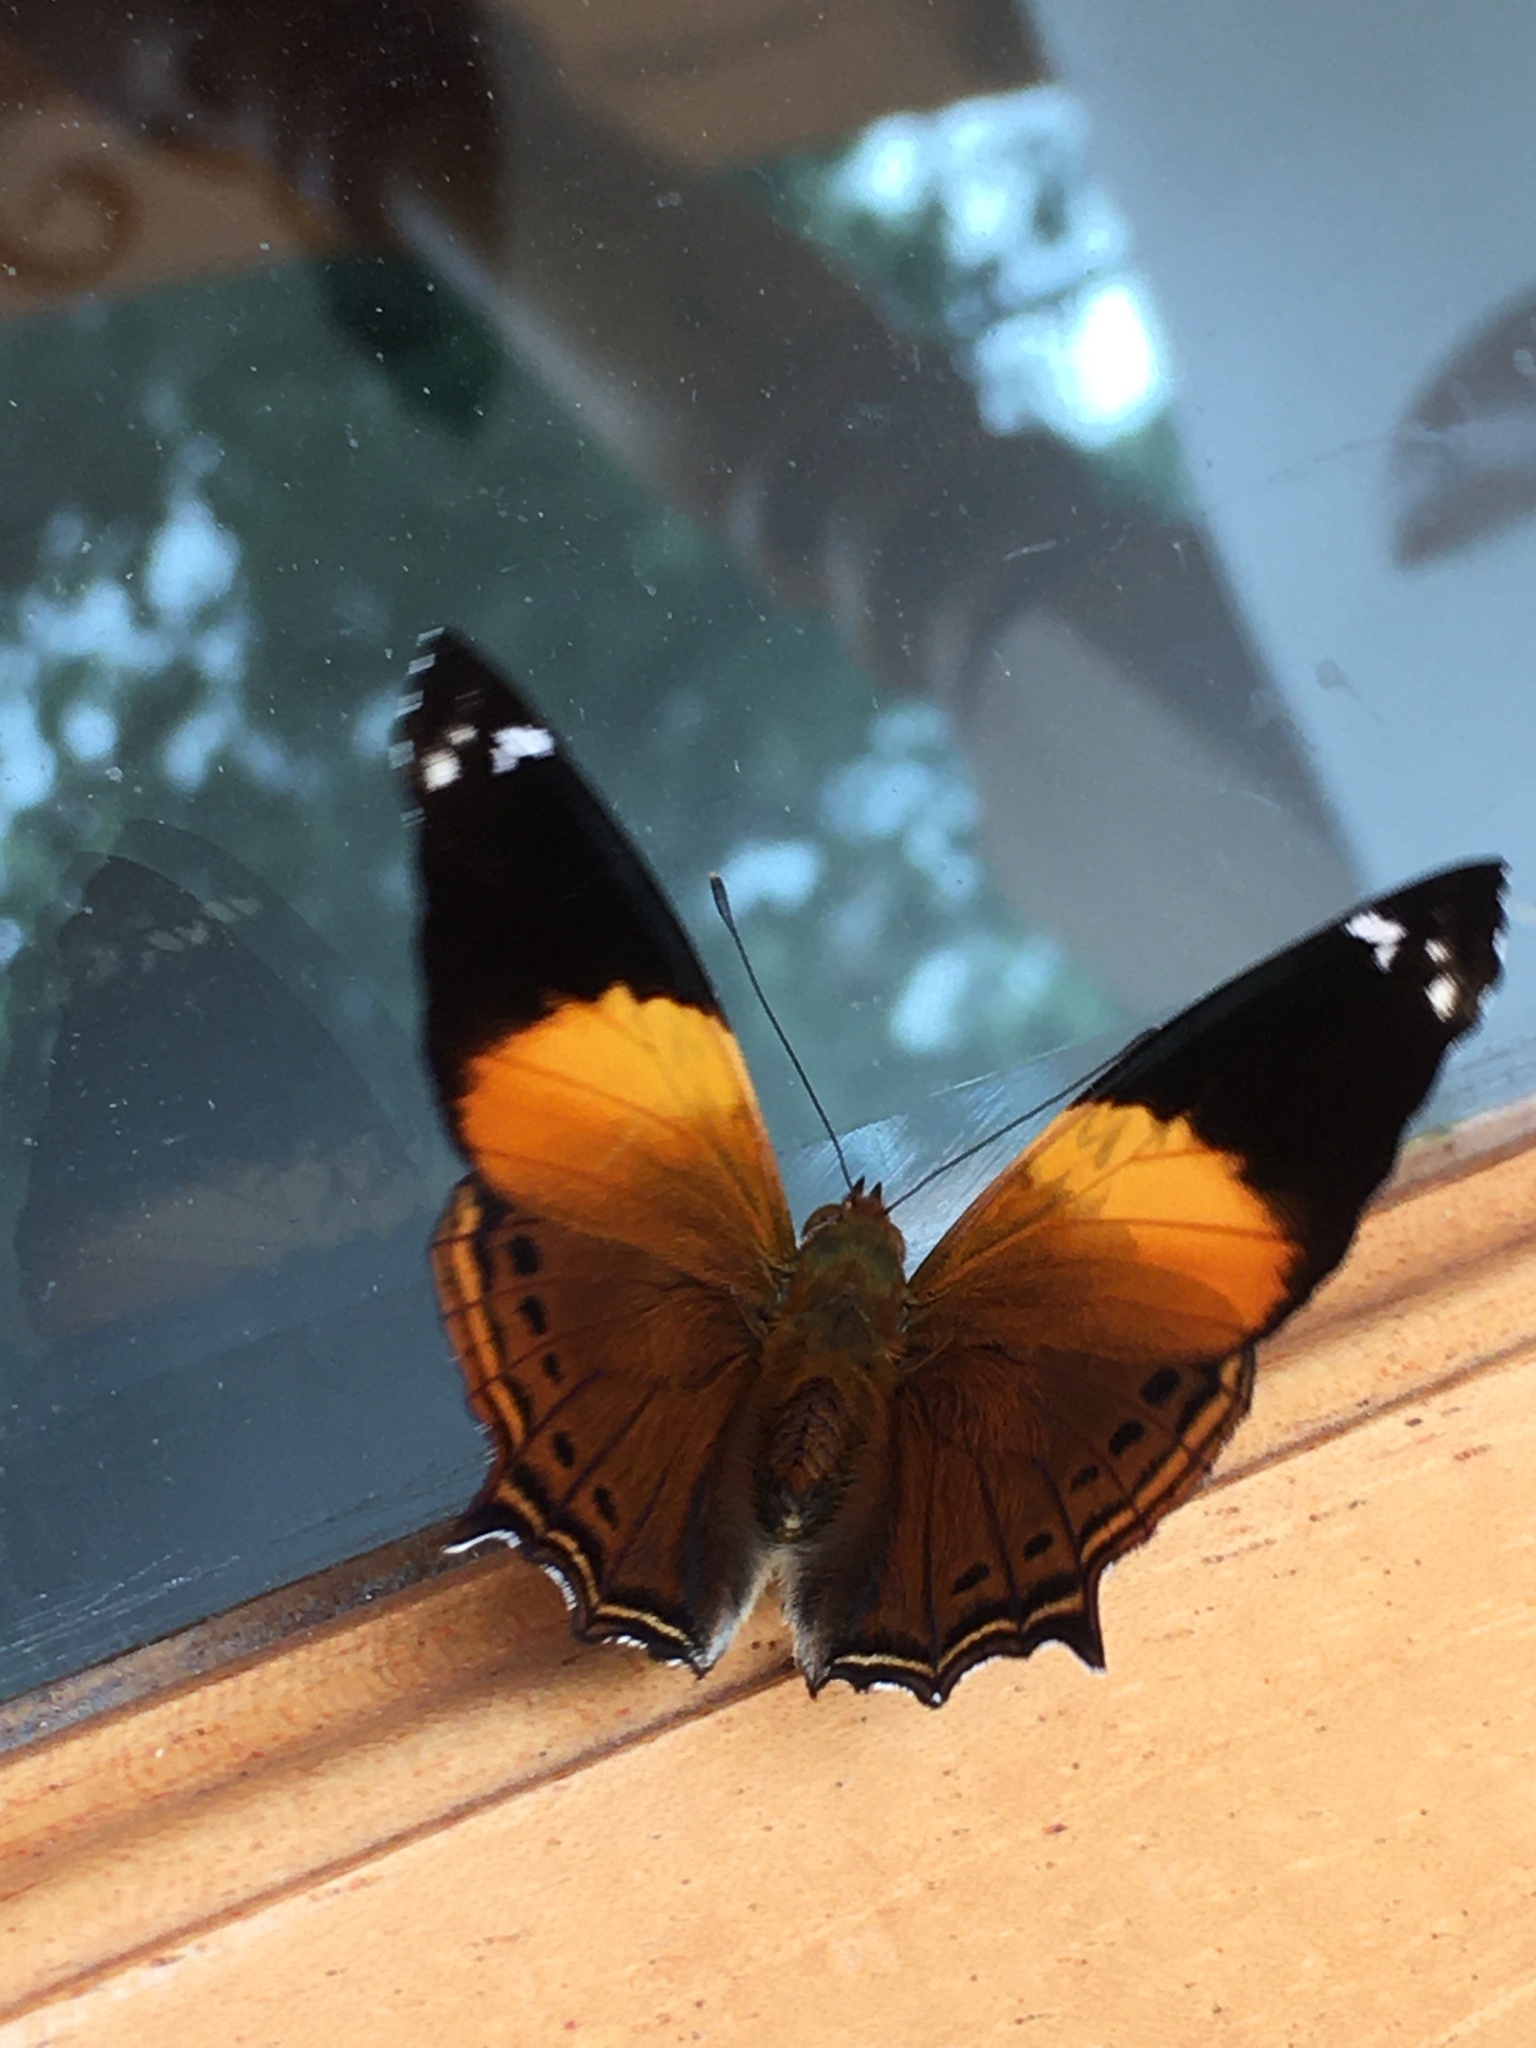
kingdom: Animalia
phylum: Arthropoda
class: Insecta
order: Lepidoptera
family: Nymphalidae
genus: Hypanartia
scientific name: Hypanartia godmanii
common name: Godman's mapwing
